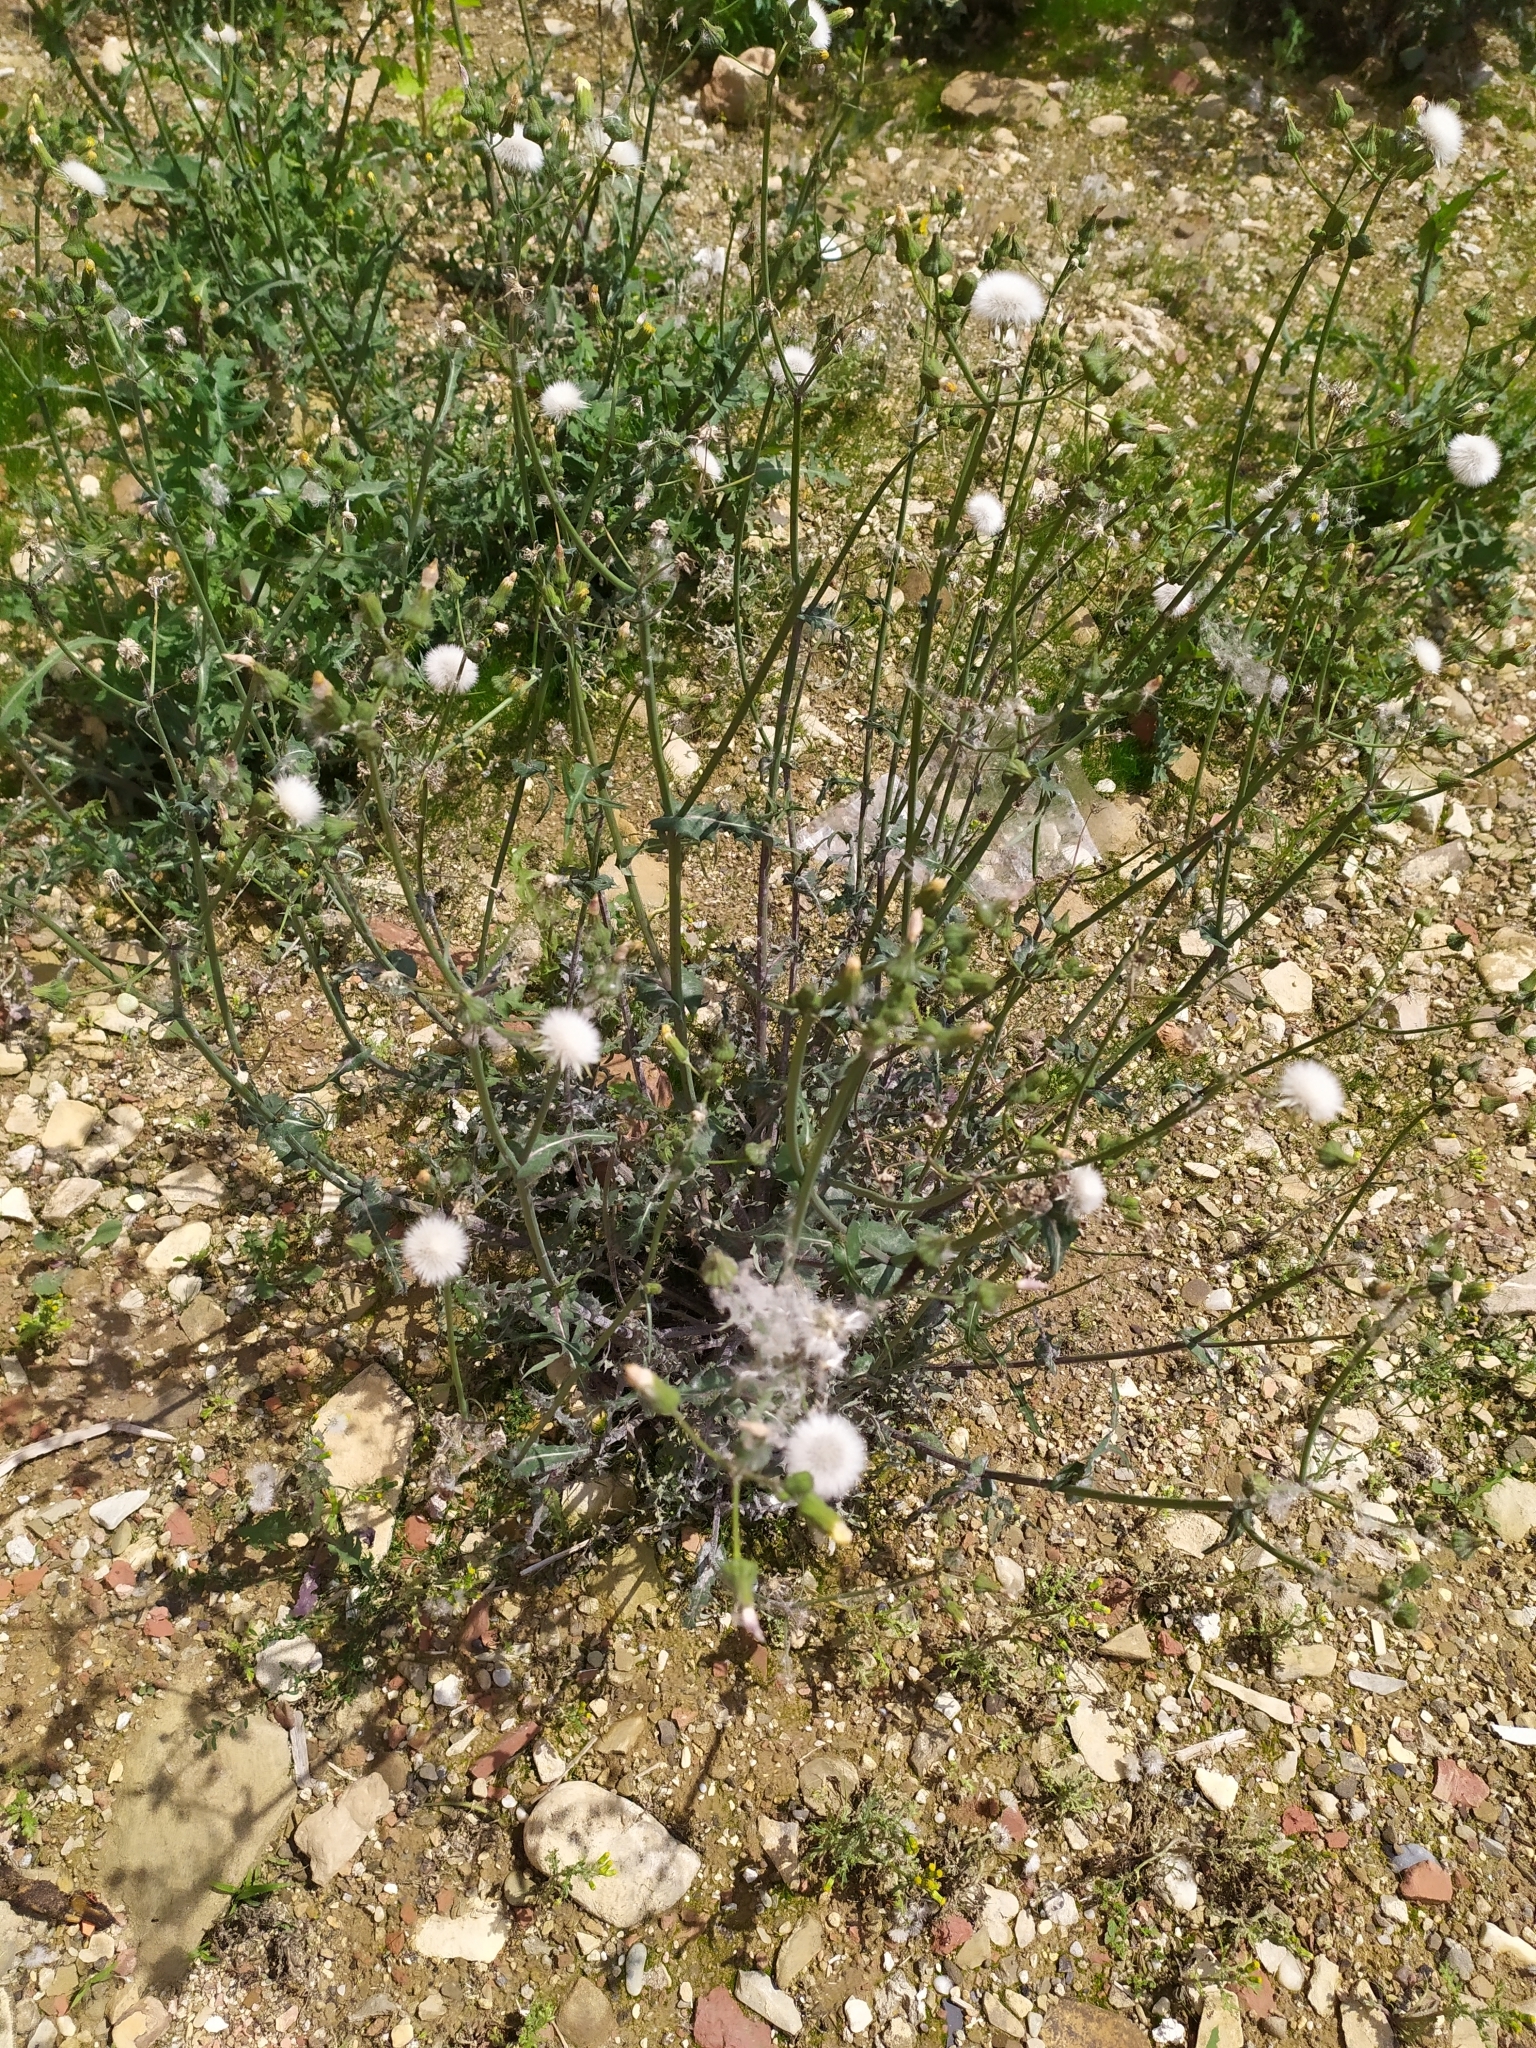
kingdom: Plantae
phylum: Tracheophyta
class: Magnoliopsida
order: Asterales
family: Asteraceae
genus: Sonchus
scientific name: Sonchus oleraceus
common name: Common sowthistle
